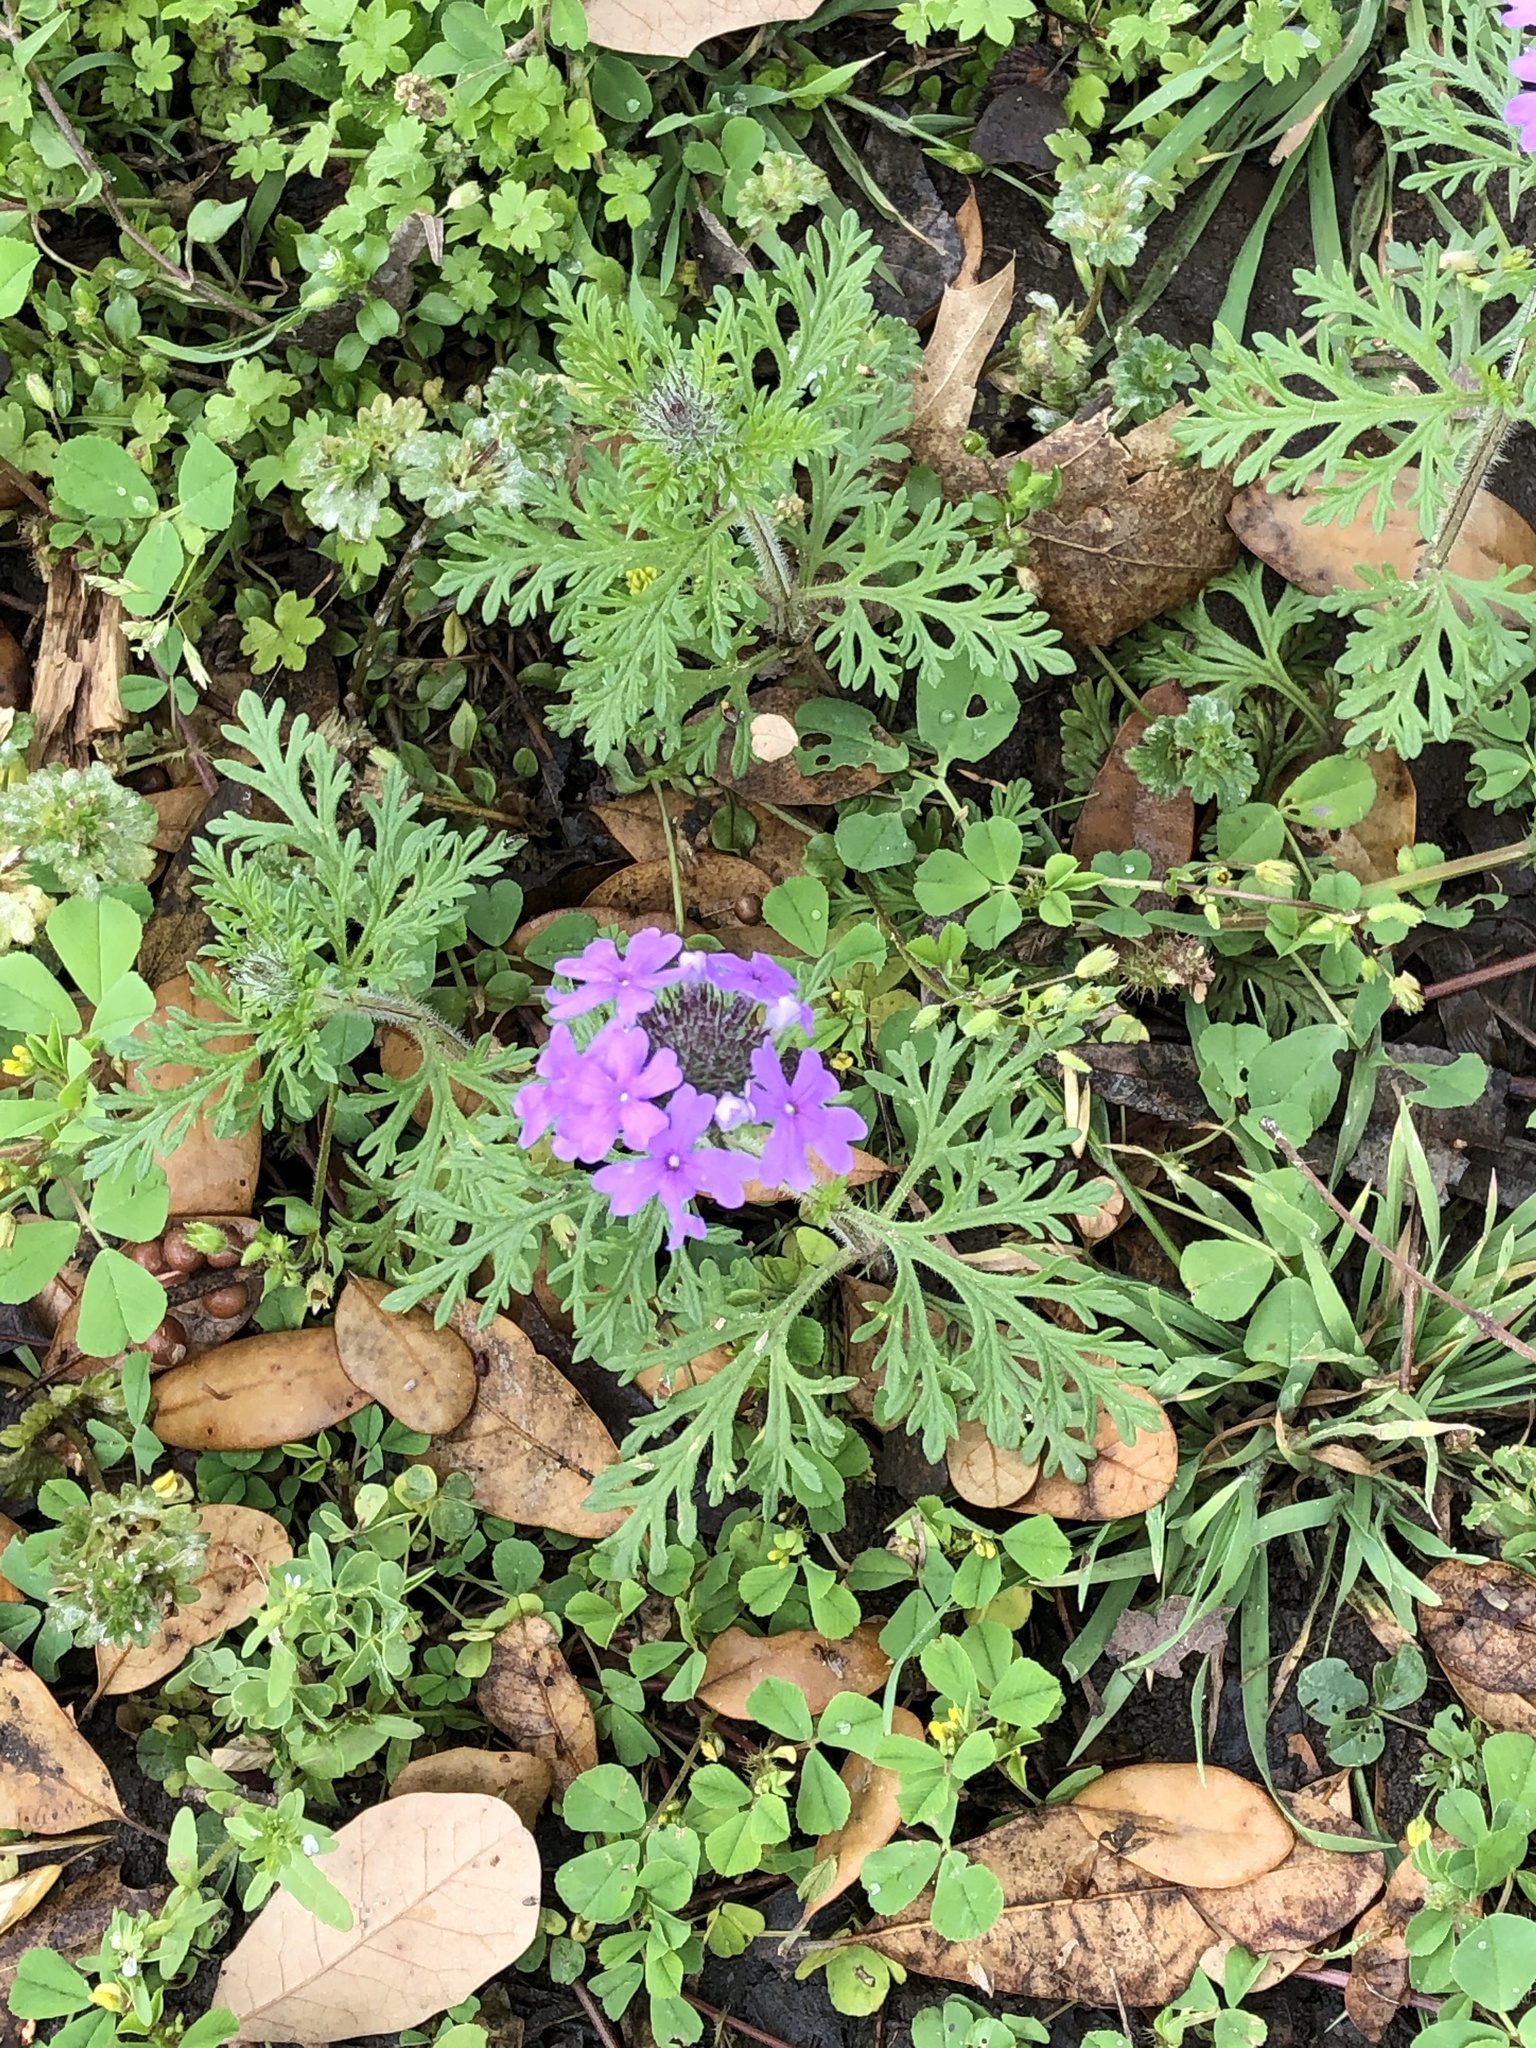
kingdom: Plantae
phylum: Tracheophyta
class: Magnoliopsida
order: Lamiales
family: Verbenaceae
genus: Verbena
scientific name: Verbena bipinnatifida
